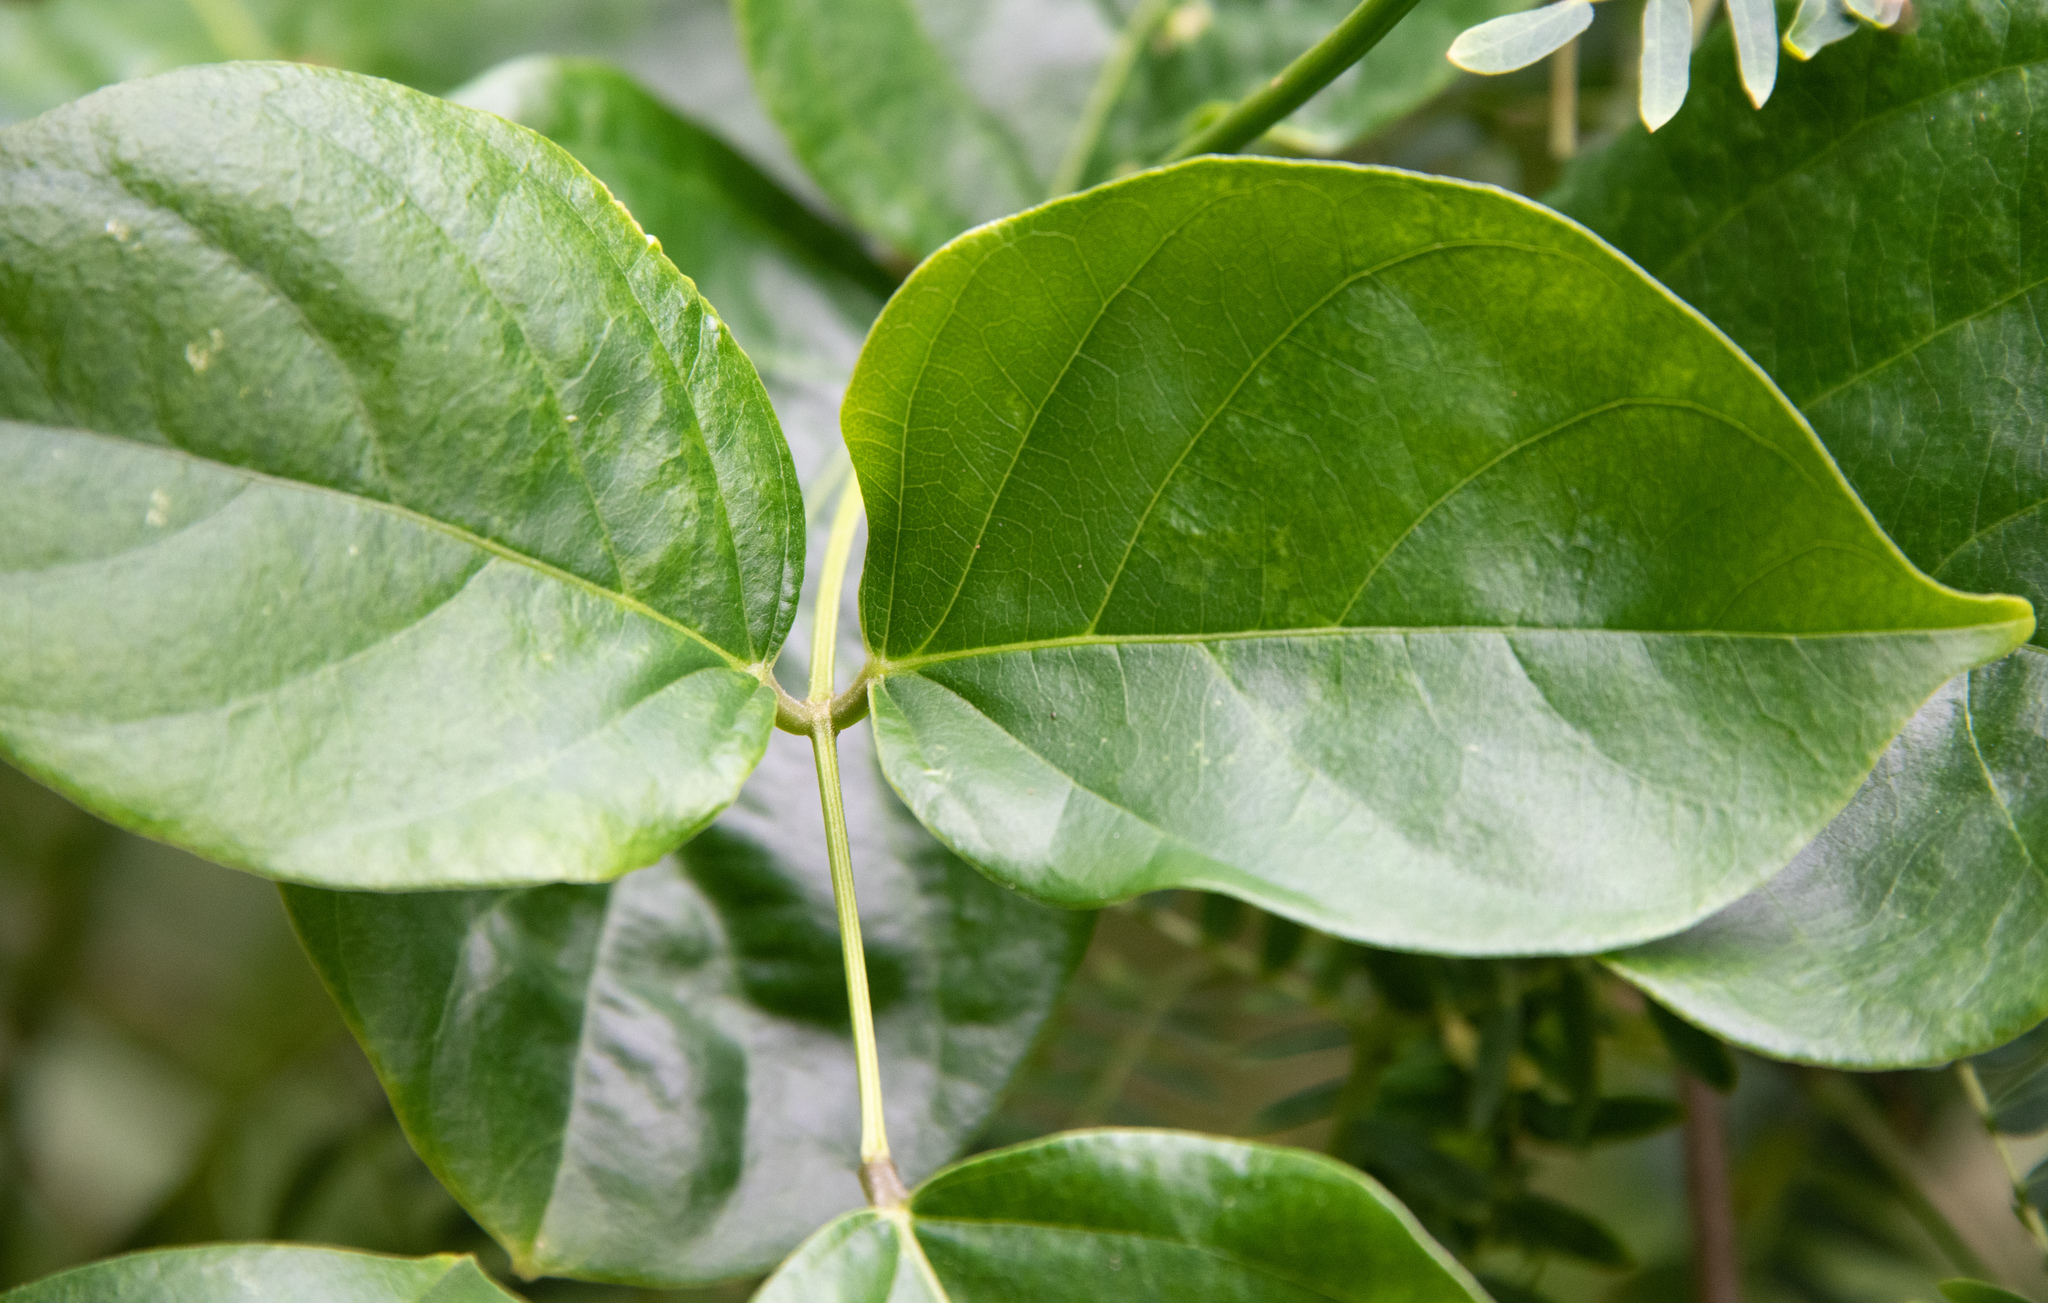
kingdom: Plantae
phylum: Tracheophyta
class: Magnoliopsida
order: Fabales
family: Fabaceae
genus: Canavalia
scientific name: Canavalia cathartica
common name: Maunaloa
